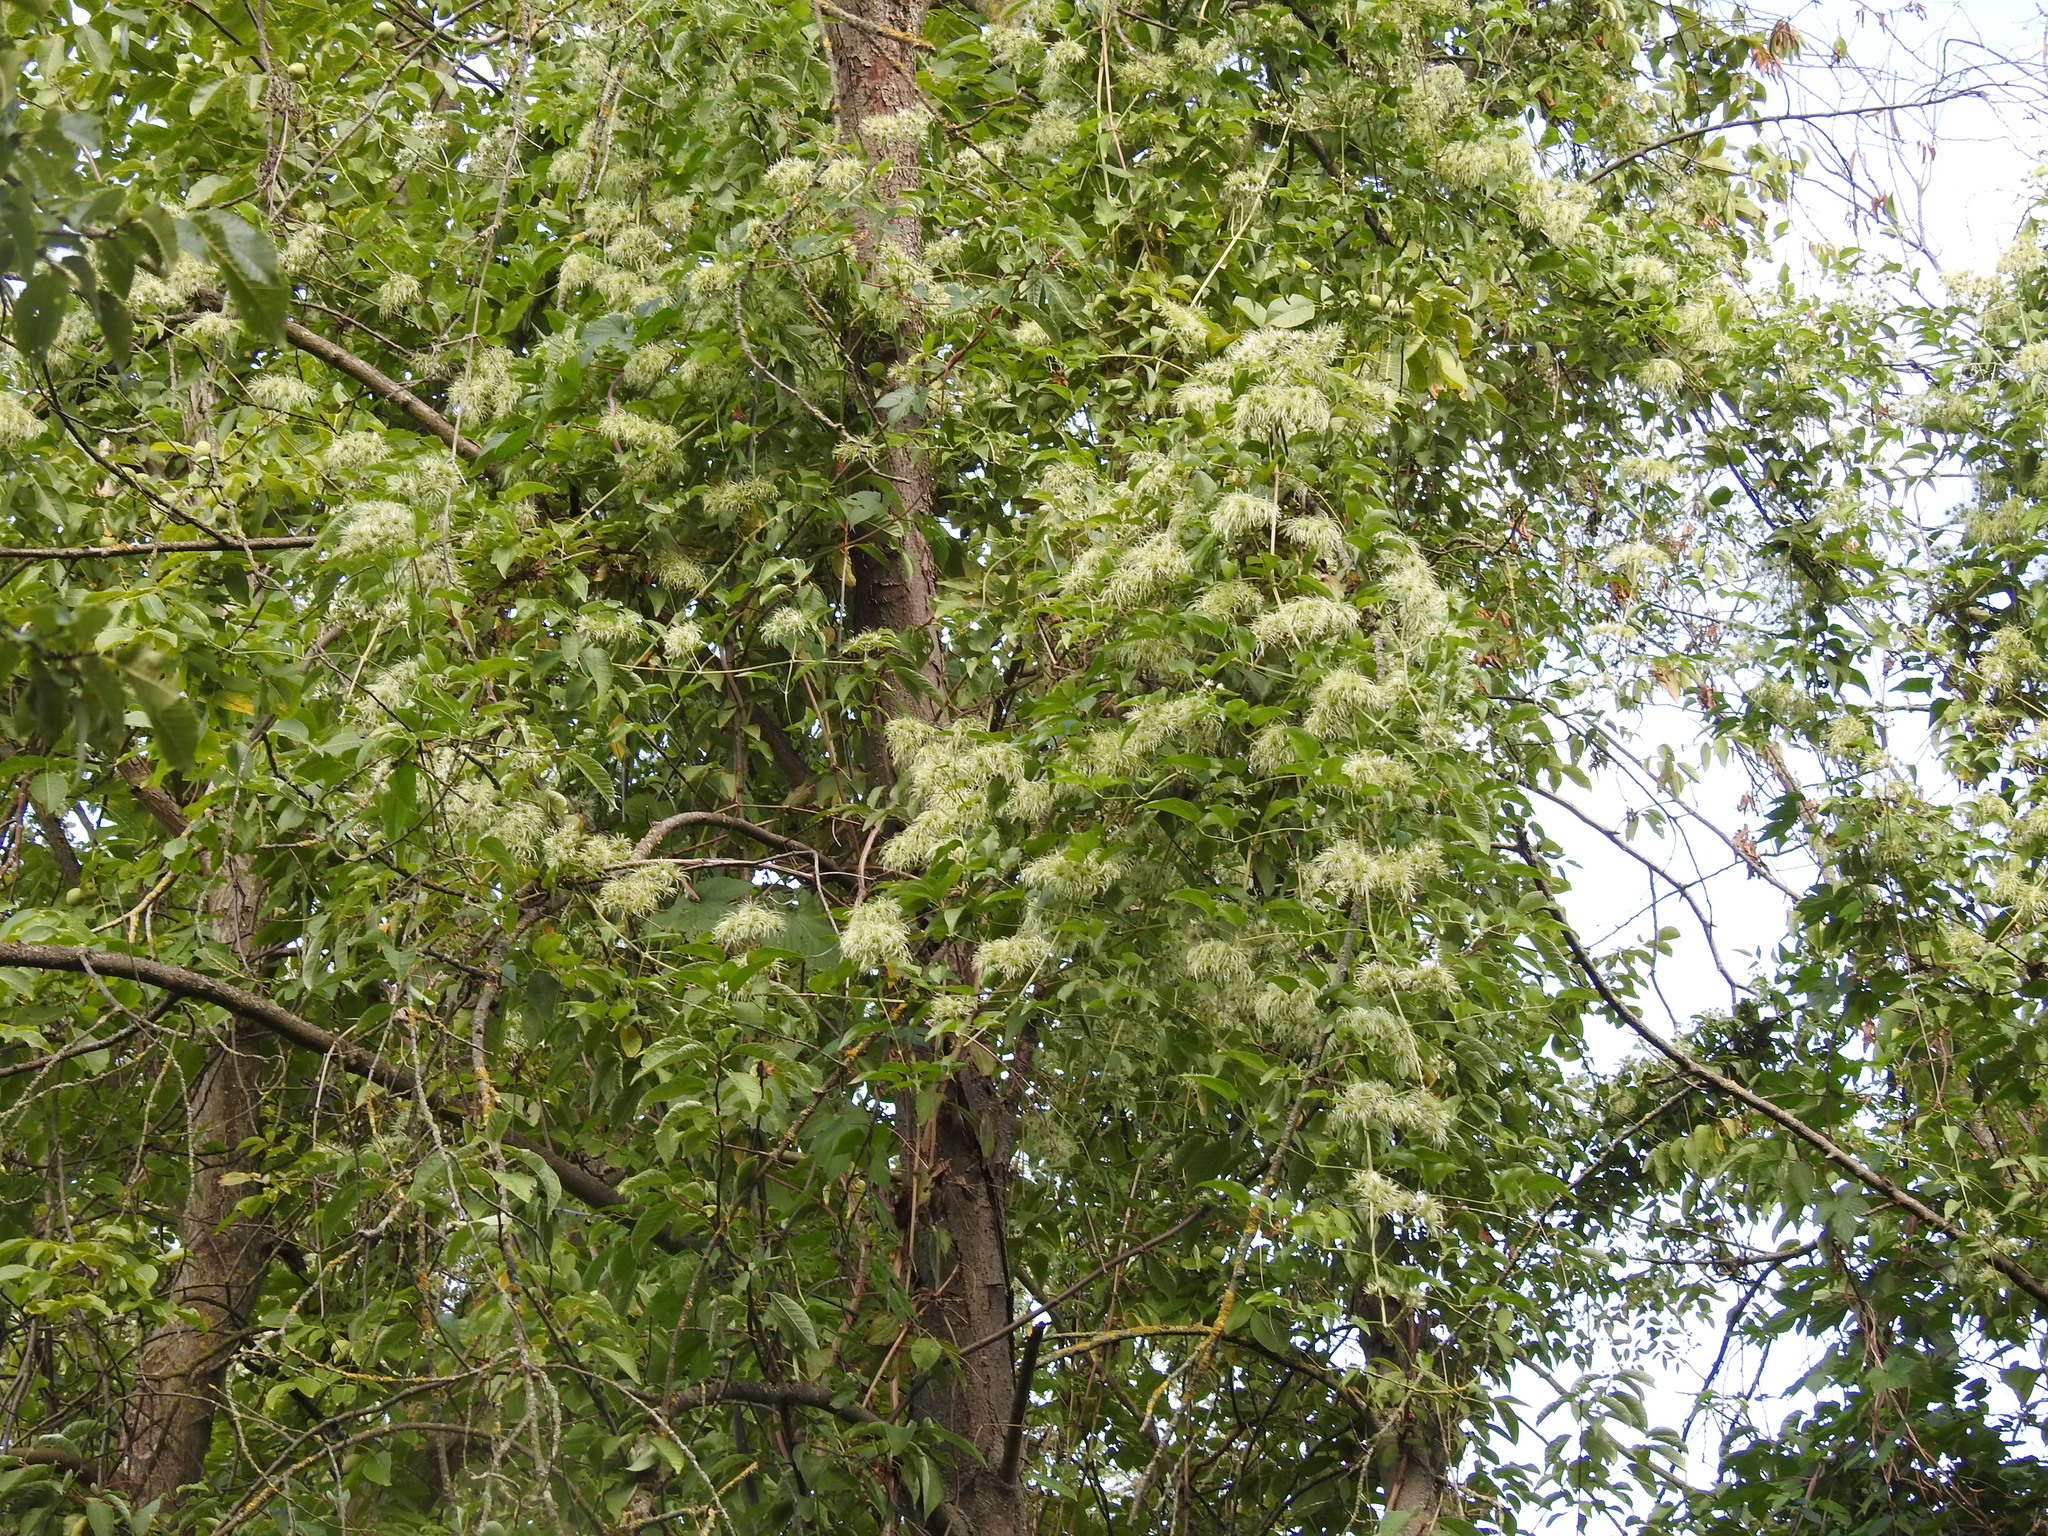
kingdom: Plantae
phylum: Tracheophyta
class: Magnoliopsida
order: Ranunculales
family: Ranunculaceae
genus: Clematis
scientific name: Clematis vitalba
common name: Evergreen clematis
